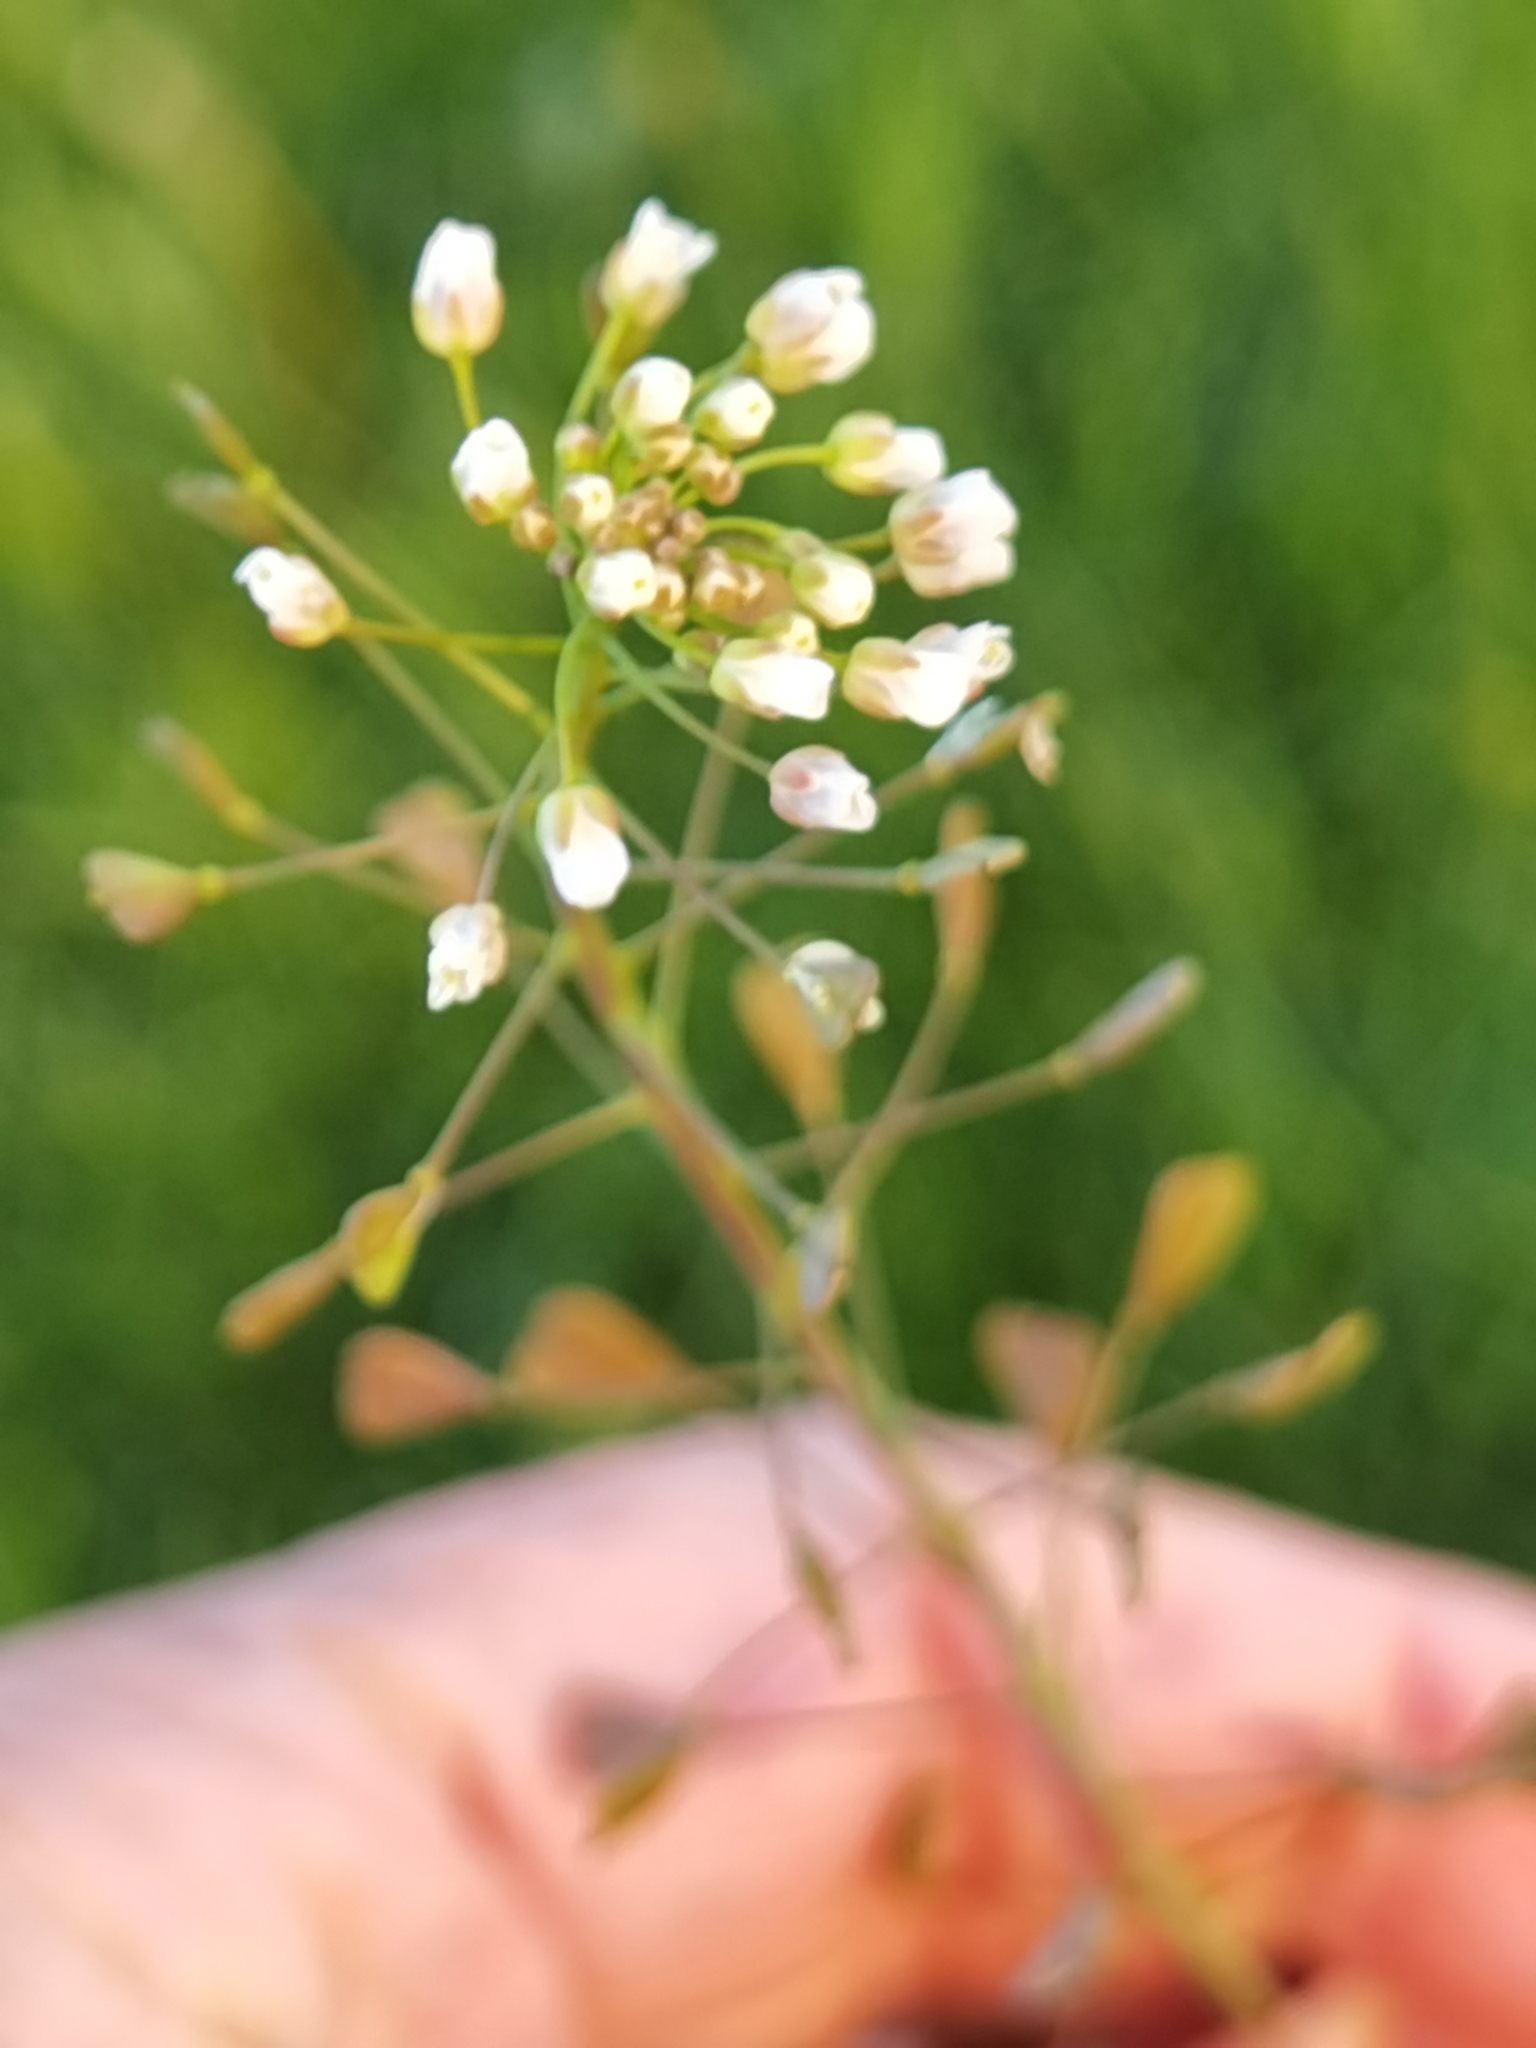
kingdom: Plantae
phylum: Tracheophyta
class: Magnoliopsida
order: Brassicales
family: Brassicaceae
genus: Capsella
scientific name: Capsella bursa-pastoris
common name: Shepherd's purse
